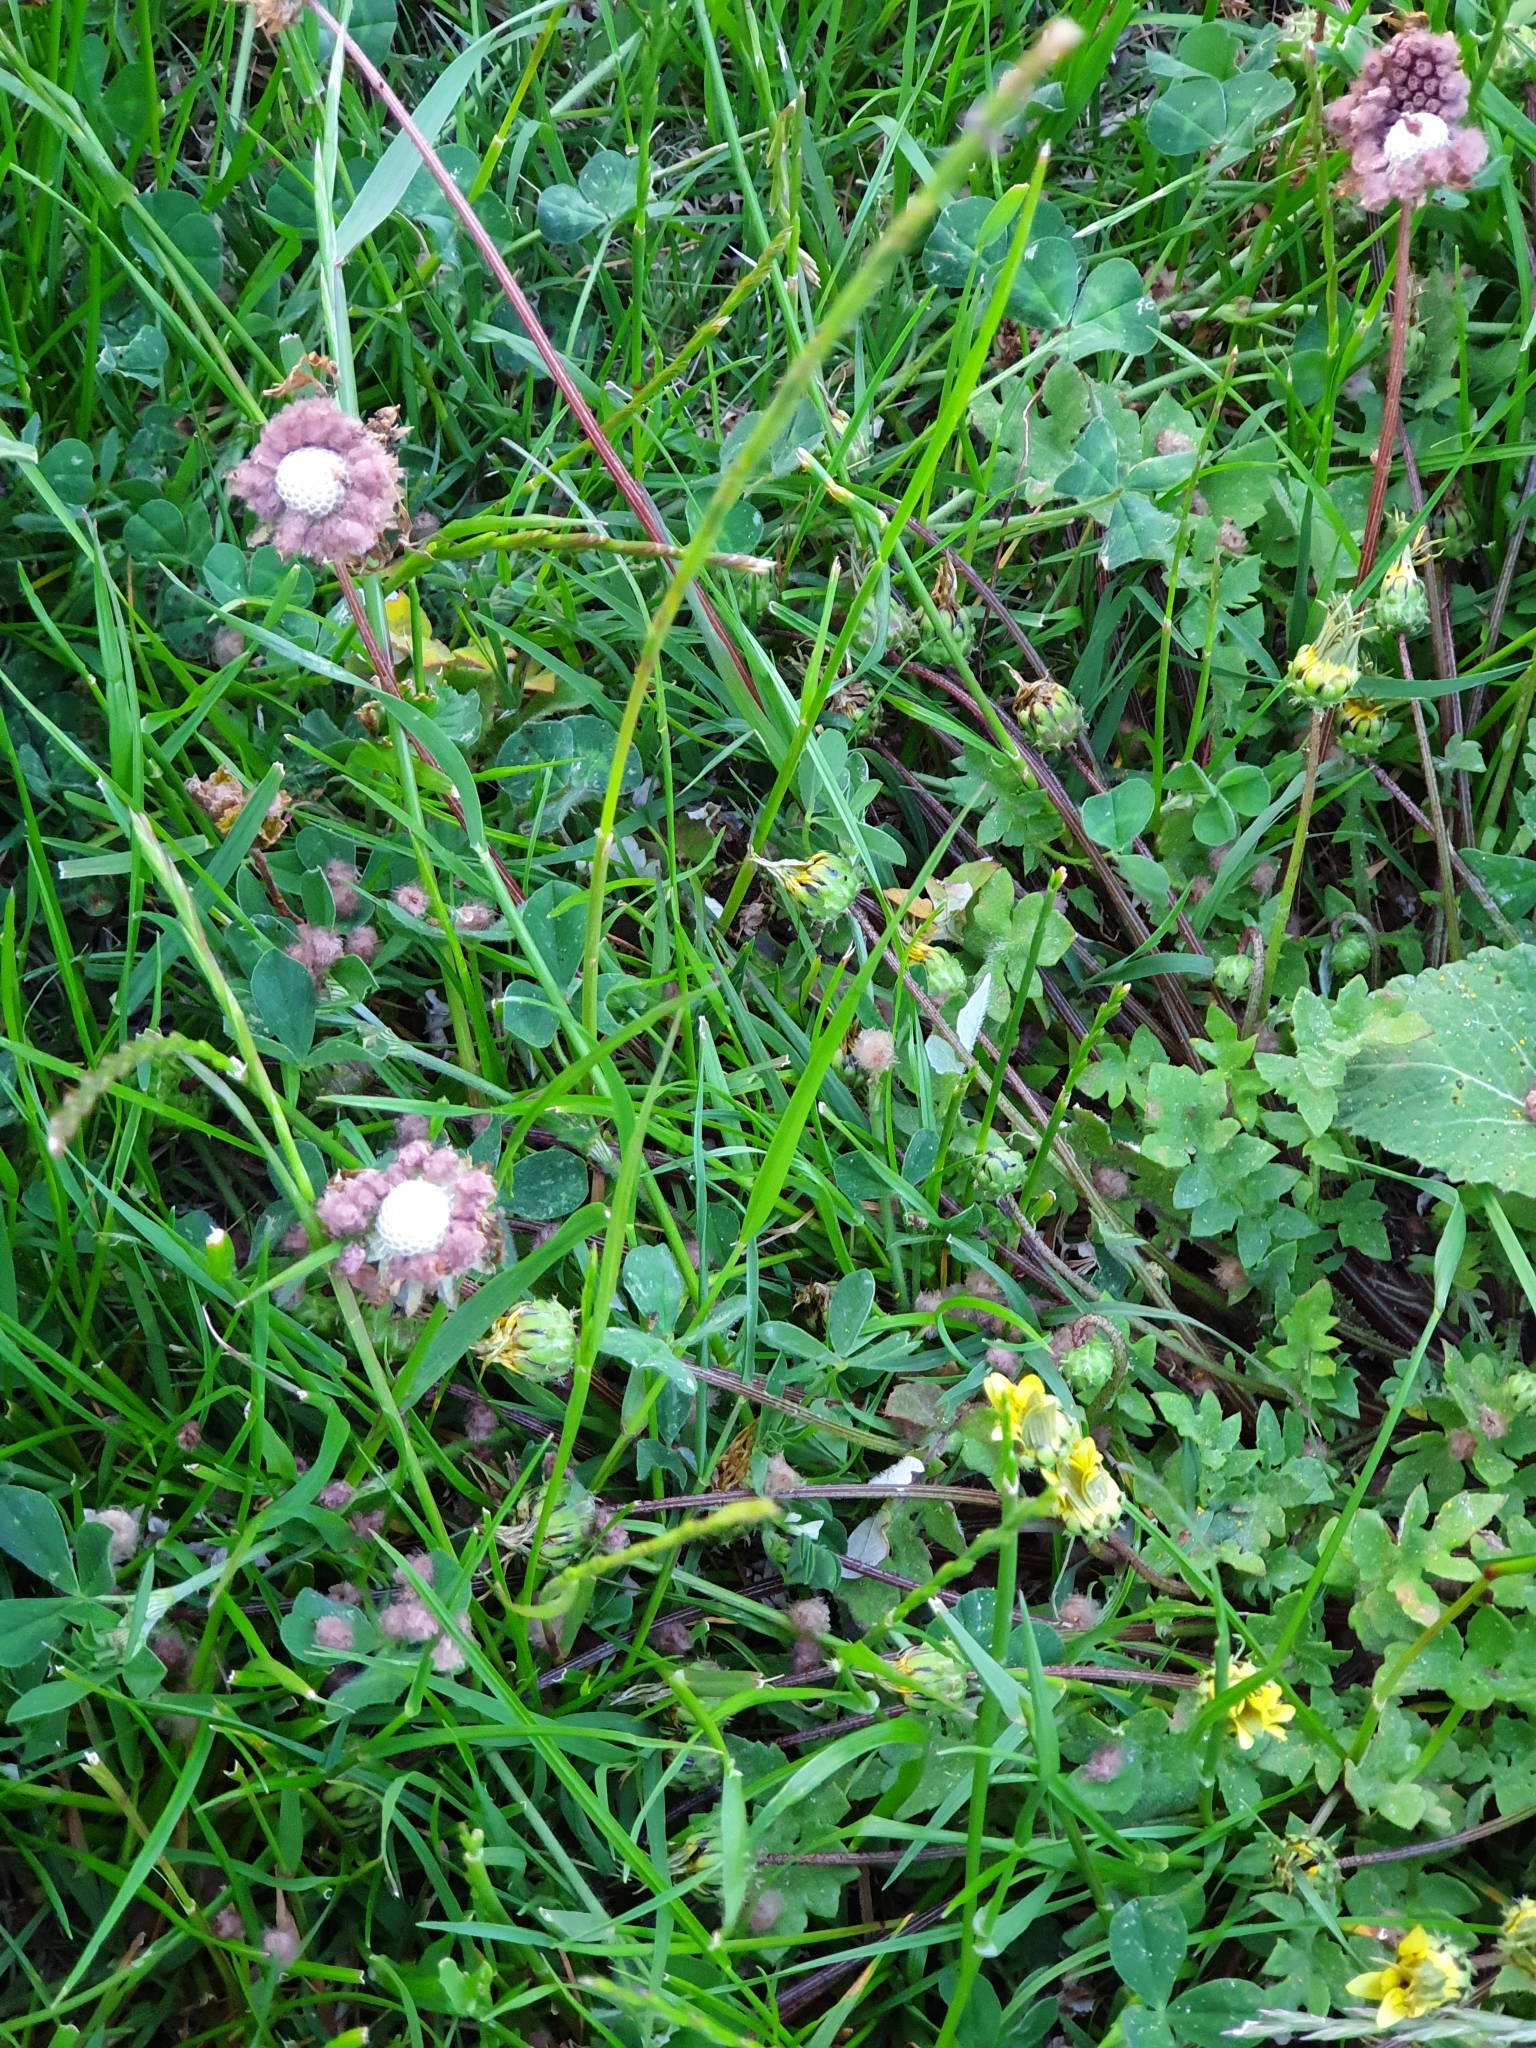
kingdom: Plantae
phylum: Tracheophyta
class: Magnoliopsida
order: Asterales
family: Asteraceae
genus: Arctotheca
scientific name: Arctotheca calendula
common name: Capeweed
